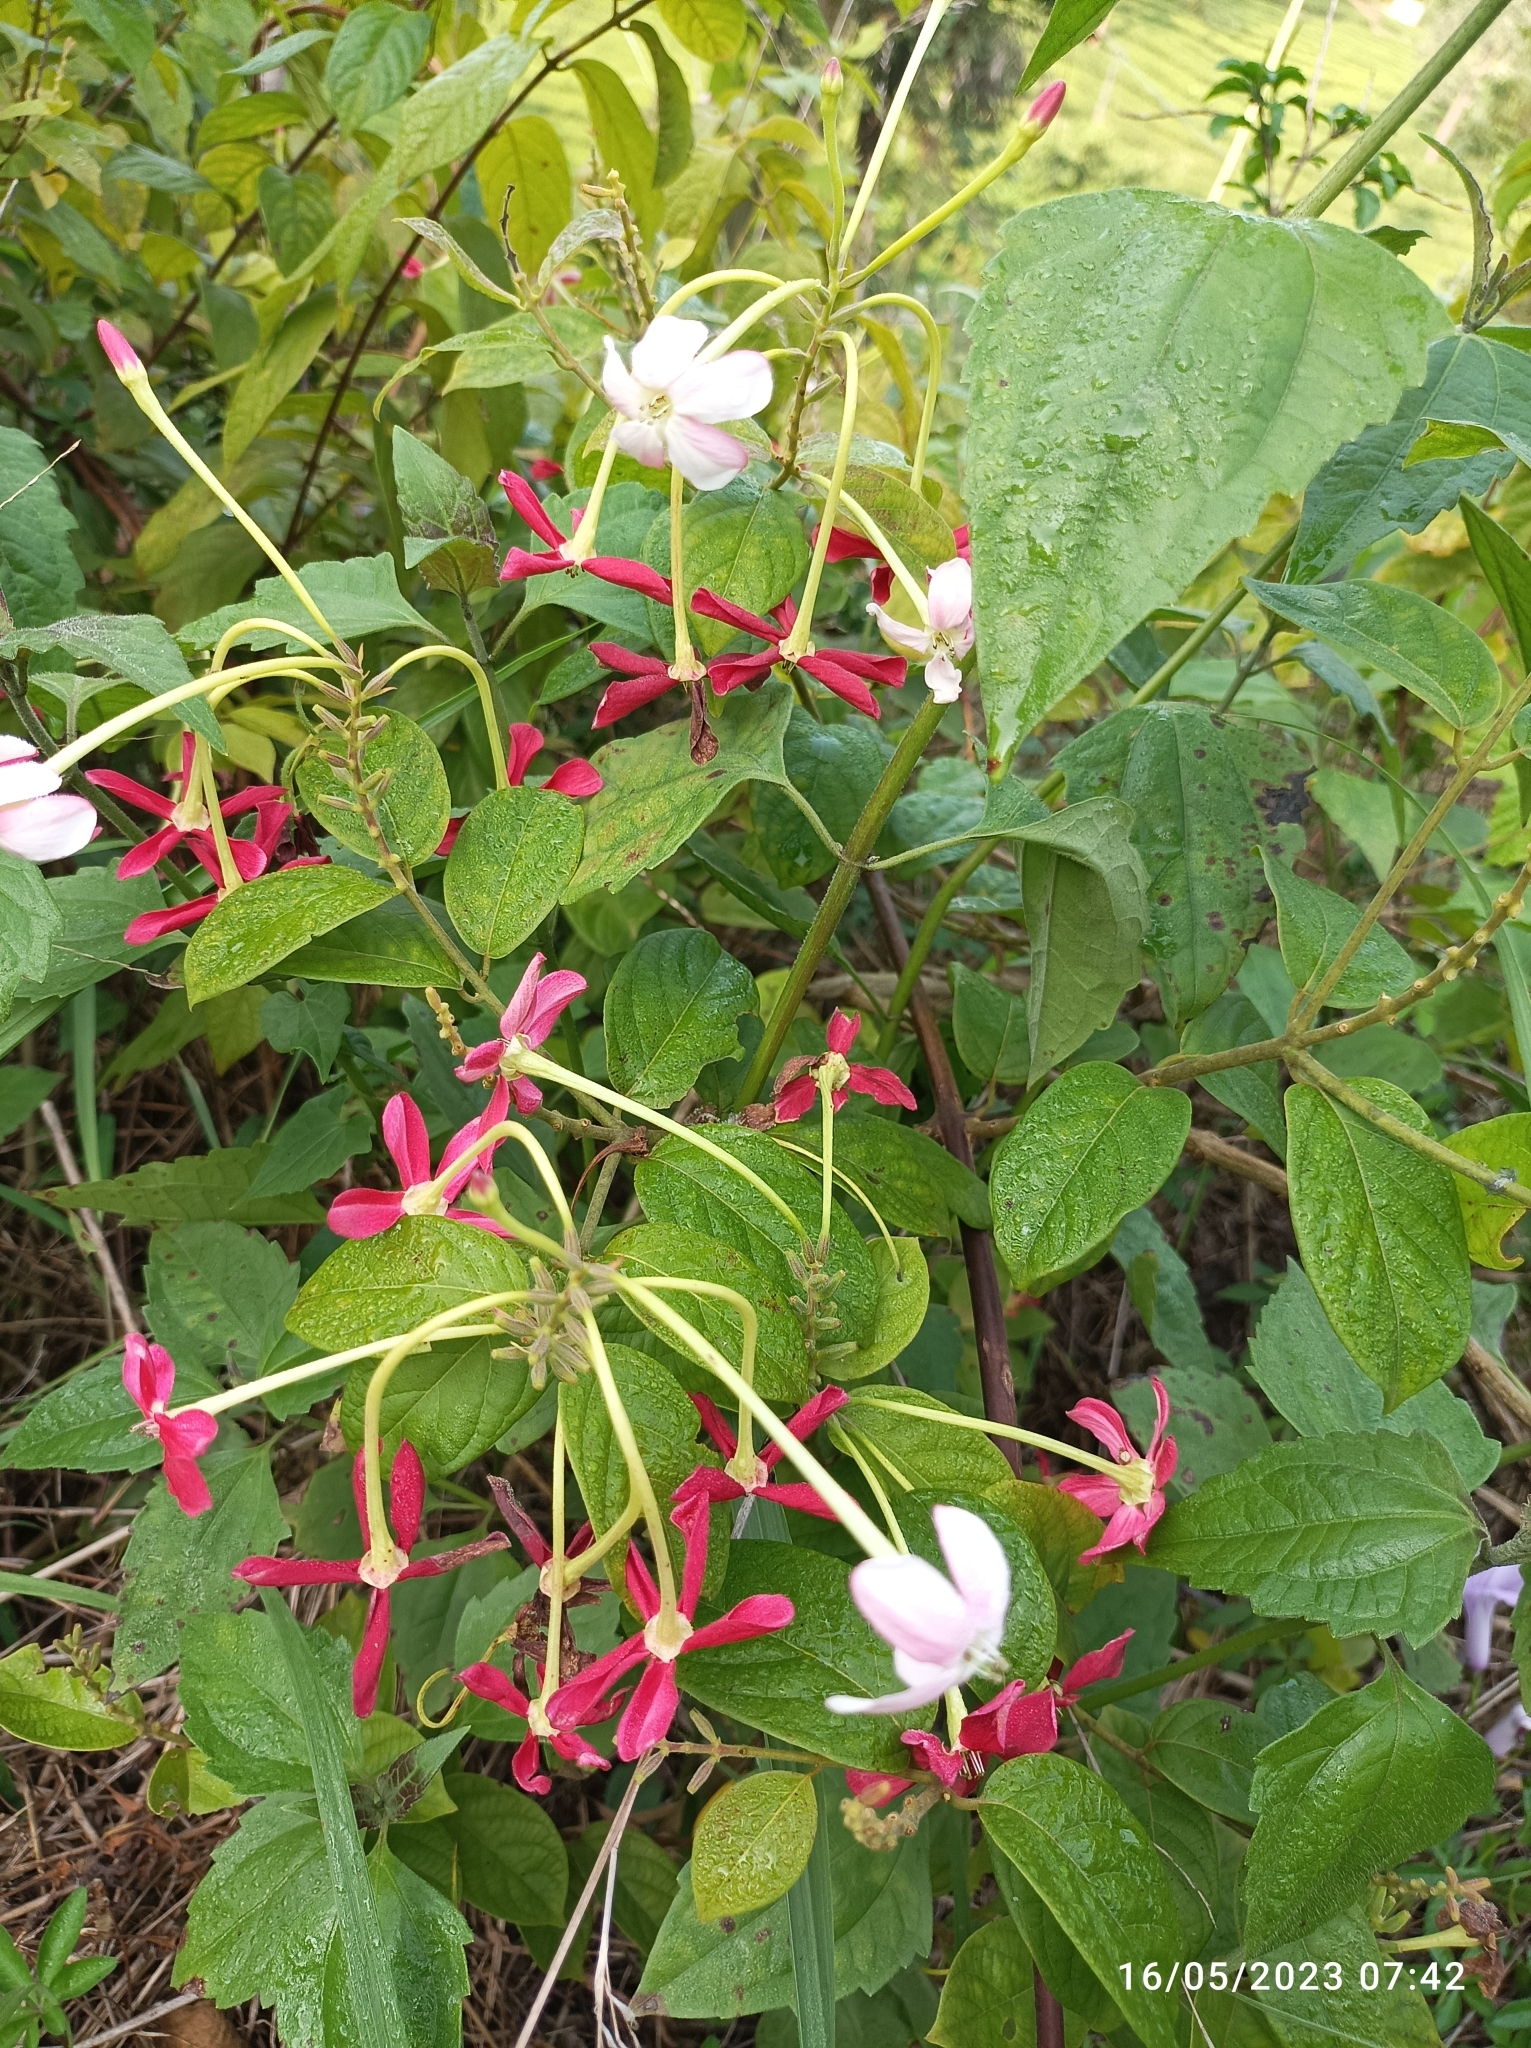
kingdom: Plantae
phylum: Tracheophyta
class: Magnoliopsida
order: Myrtales
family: Combretaceae
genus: Combretum
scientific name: Combretum indicum
